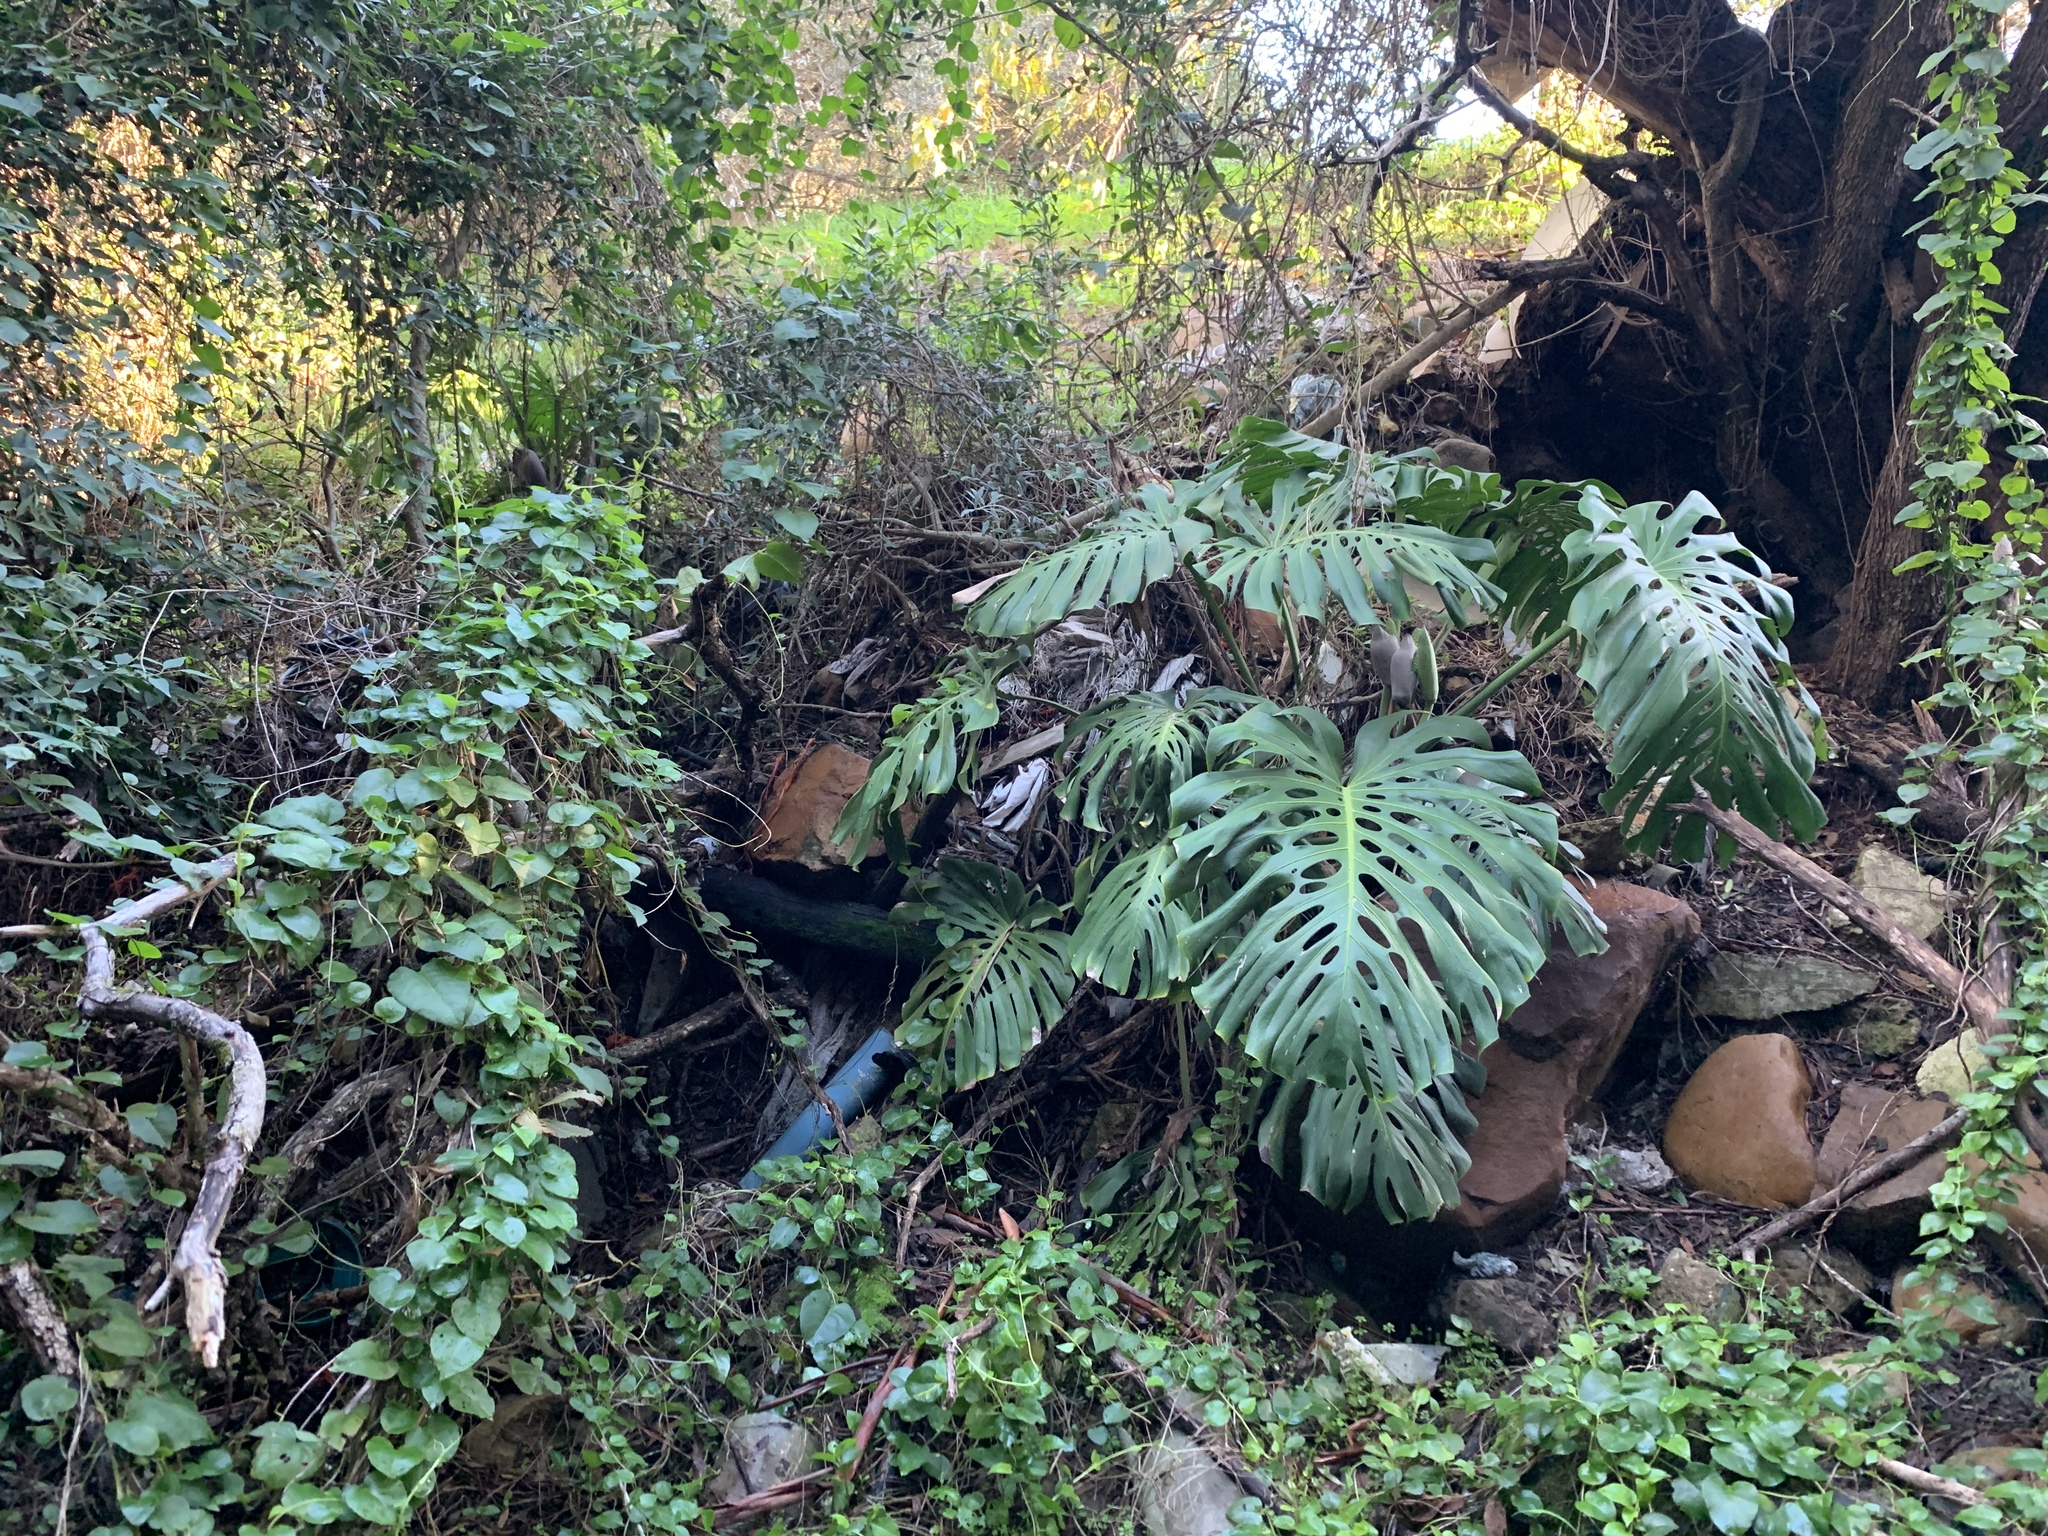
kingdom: Plantae
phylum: Tracheophyta
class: Liliopsida
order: Alismatales
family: Araceae
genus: Monstera
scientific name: Monstera deliciosa
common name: Cut-leaf-philodendron
